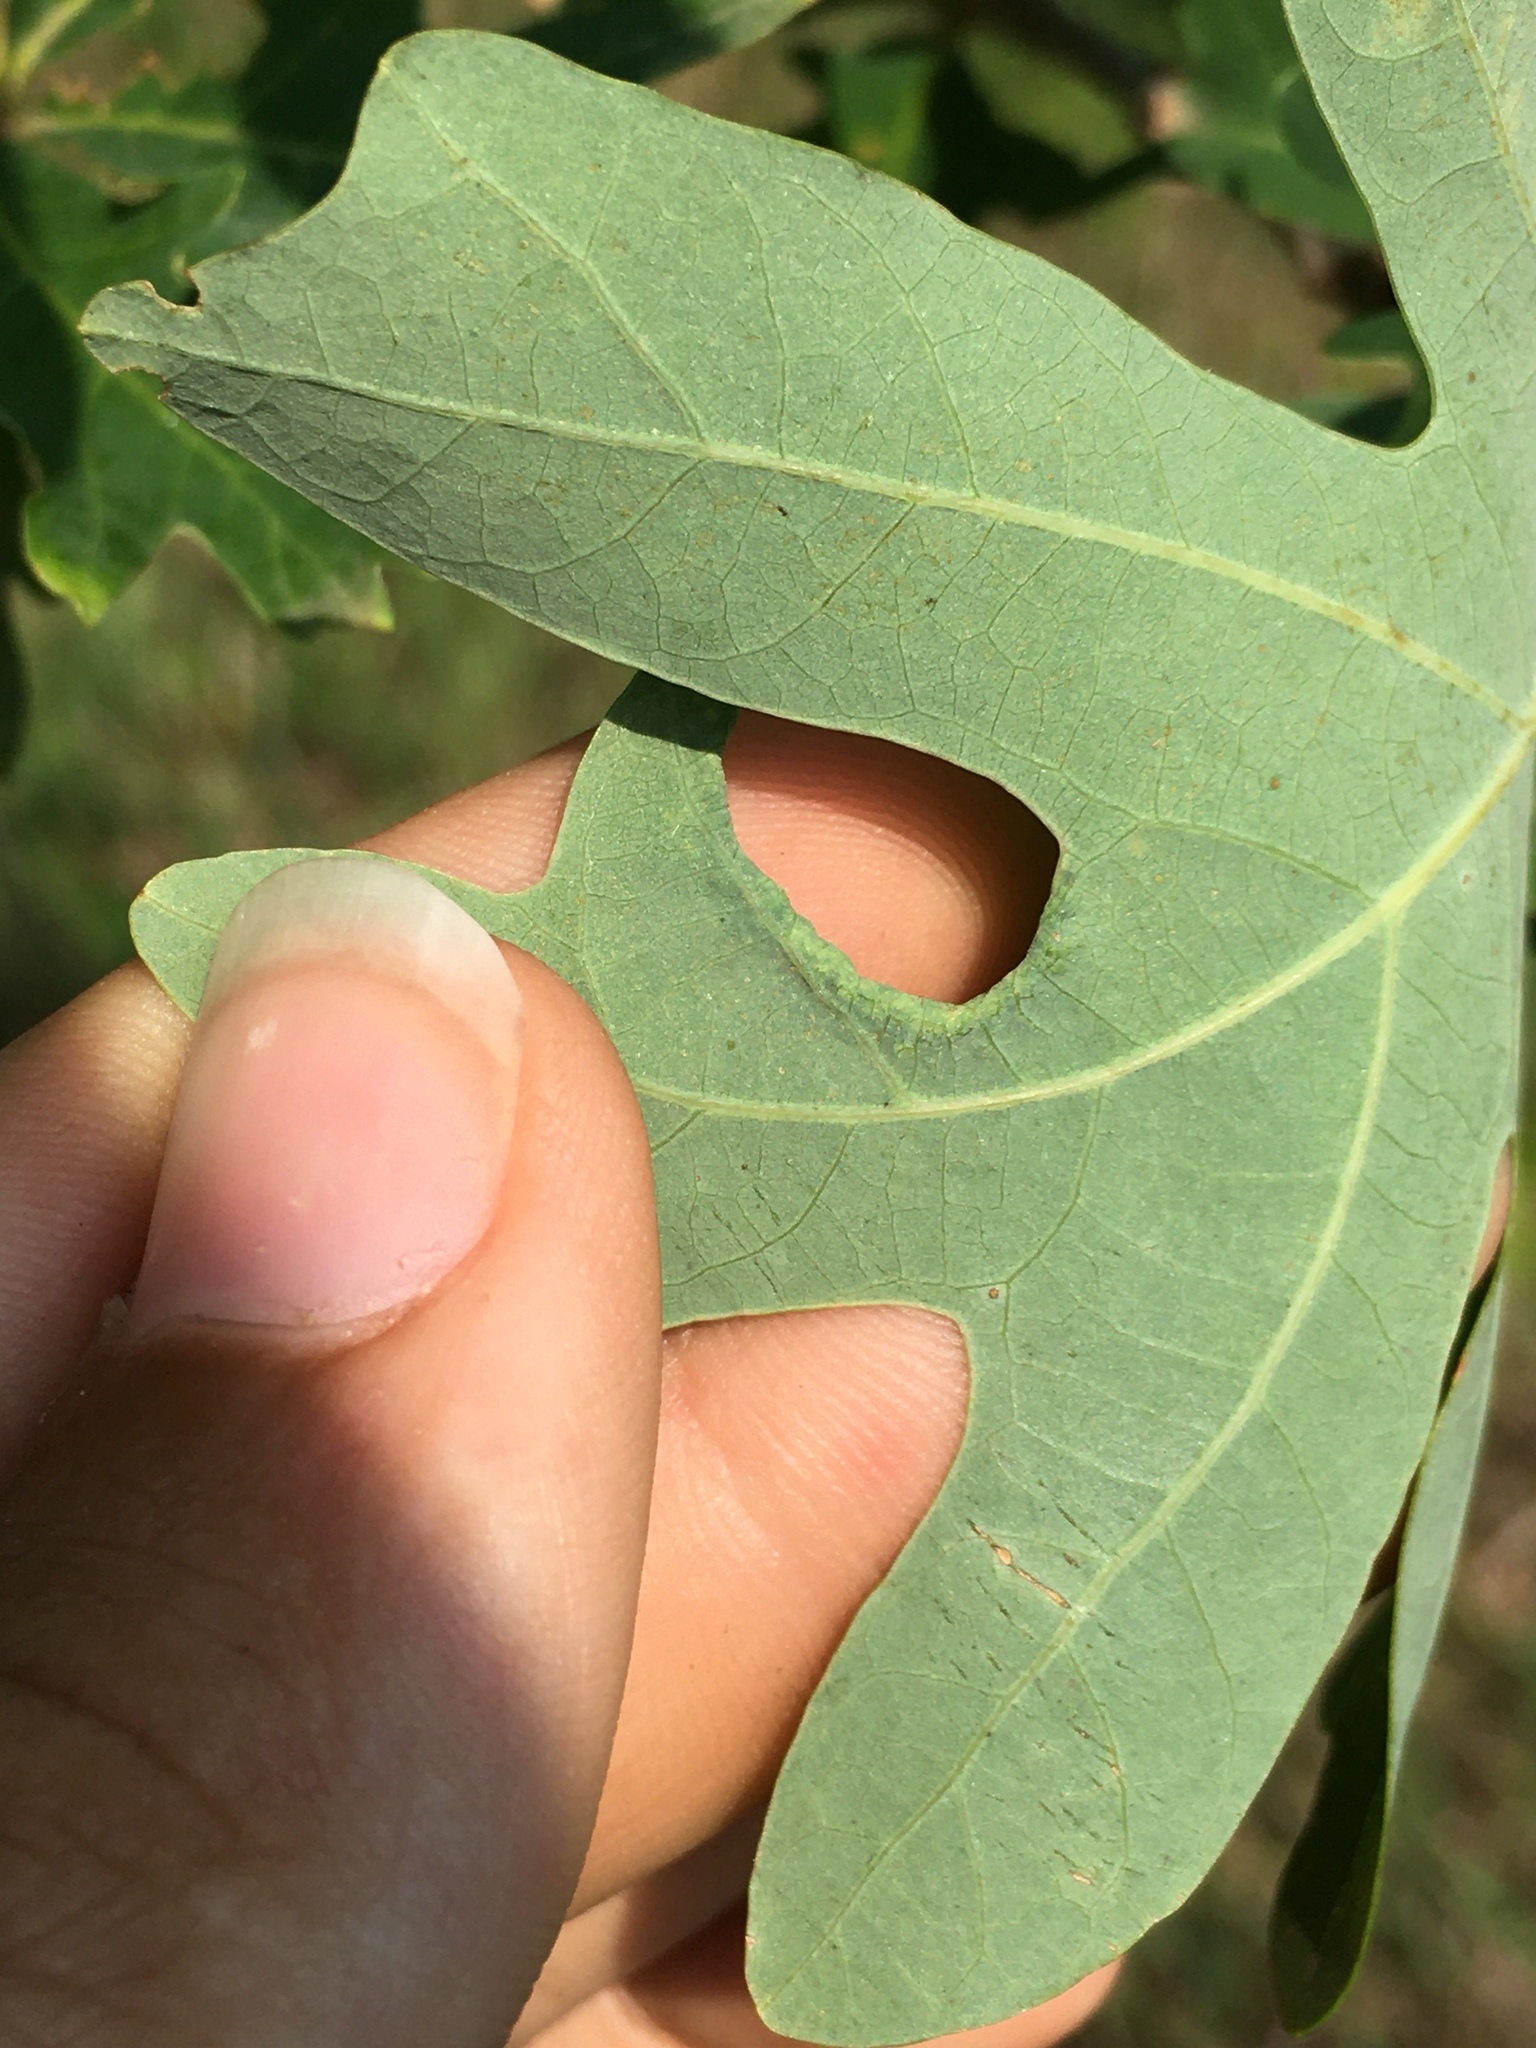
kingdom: Animalia
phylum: Arthropoda
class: Insecta
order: Diptera
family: Cecidomyiidae
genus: Macrodiplosis
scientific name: Macrodiplosis erubescens
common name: Marginal leaf fold gall midge
